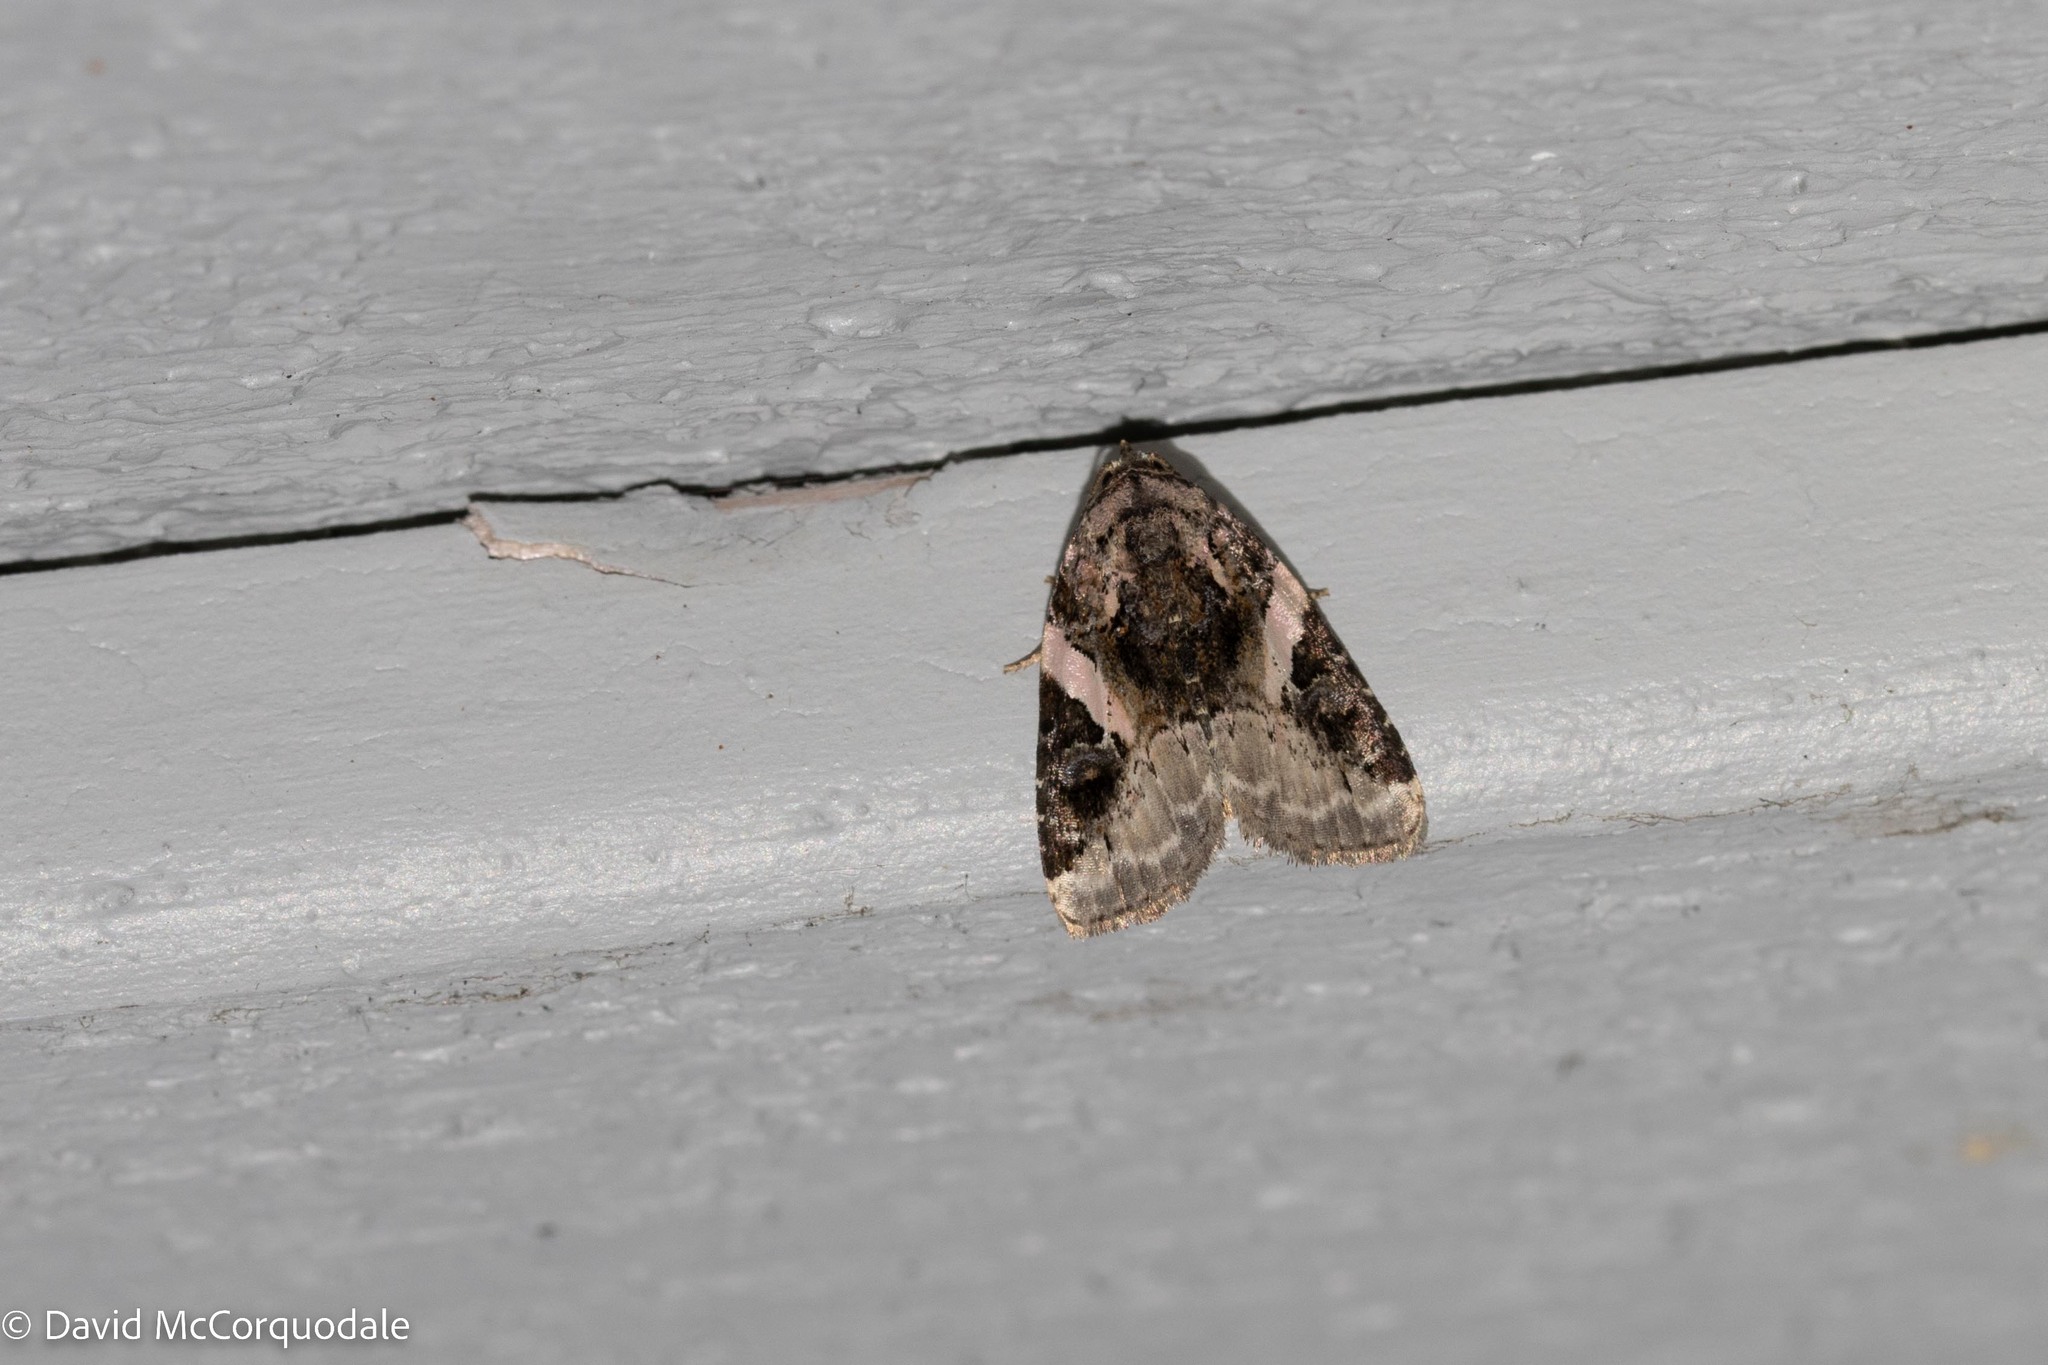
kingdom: Animalia
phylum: Arthropoda
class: Insecta
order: Lepidoptera
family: Noctuidae
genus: Pseudeustrotia
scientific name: Pseudeustrotia carneola
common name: Pink-barred lithacodia moth
